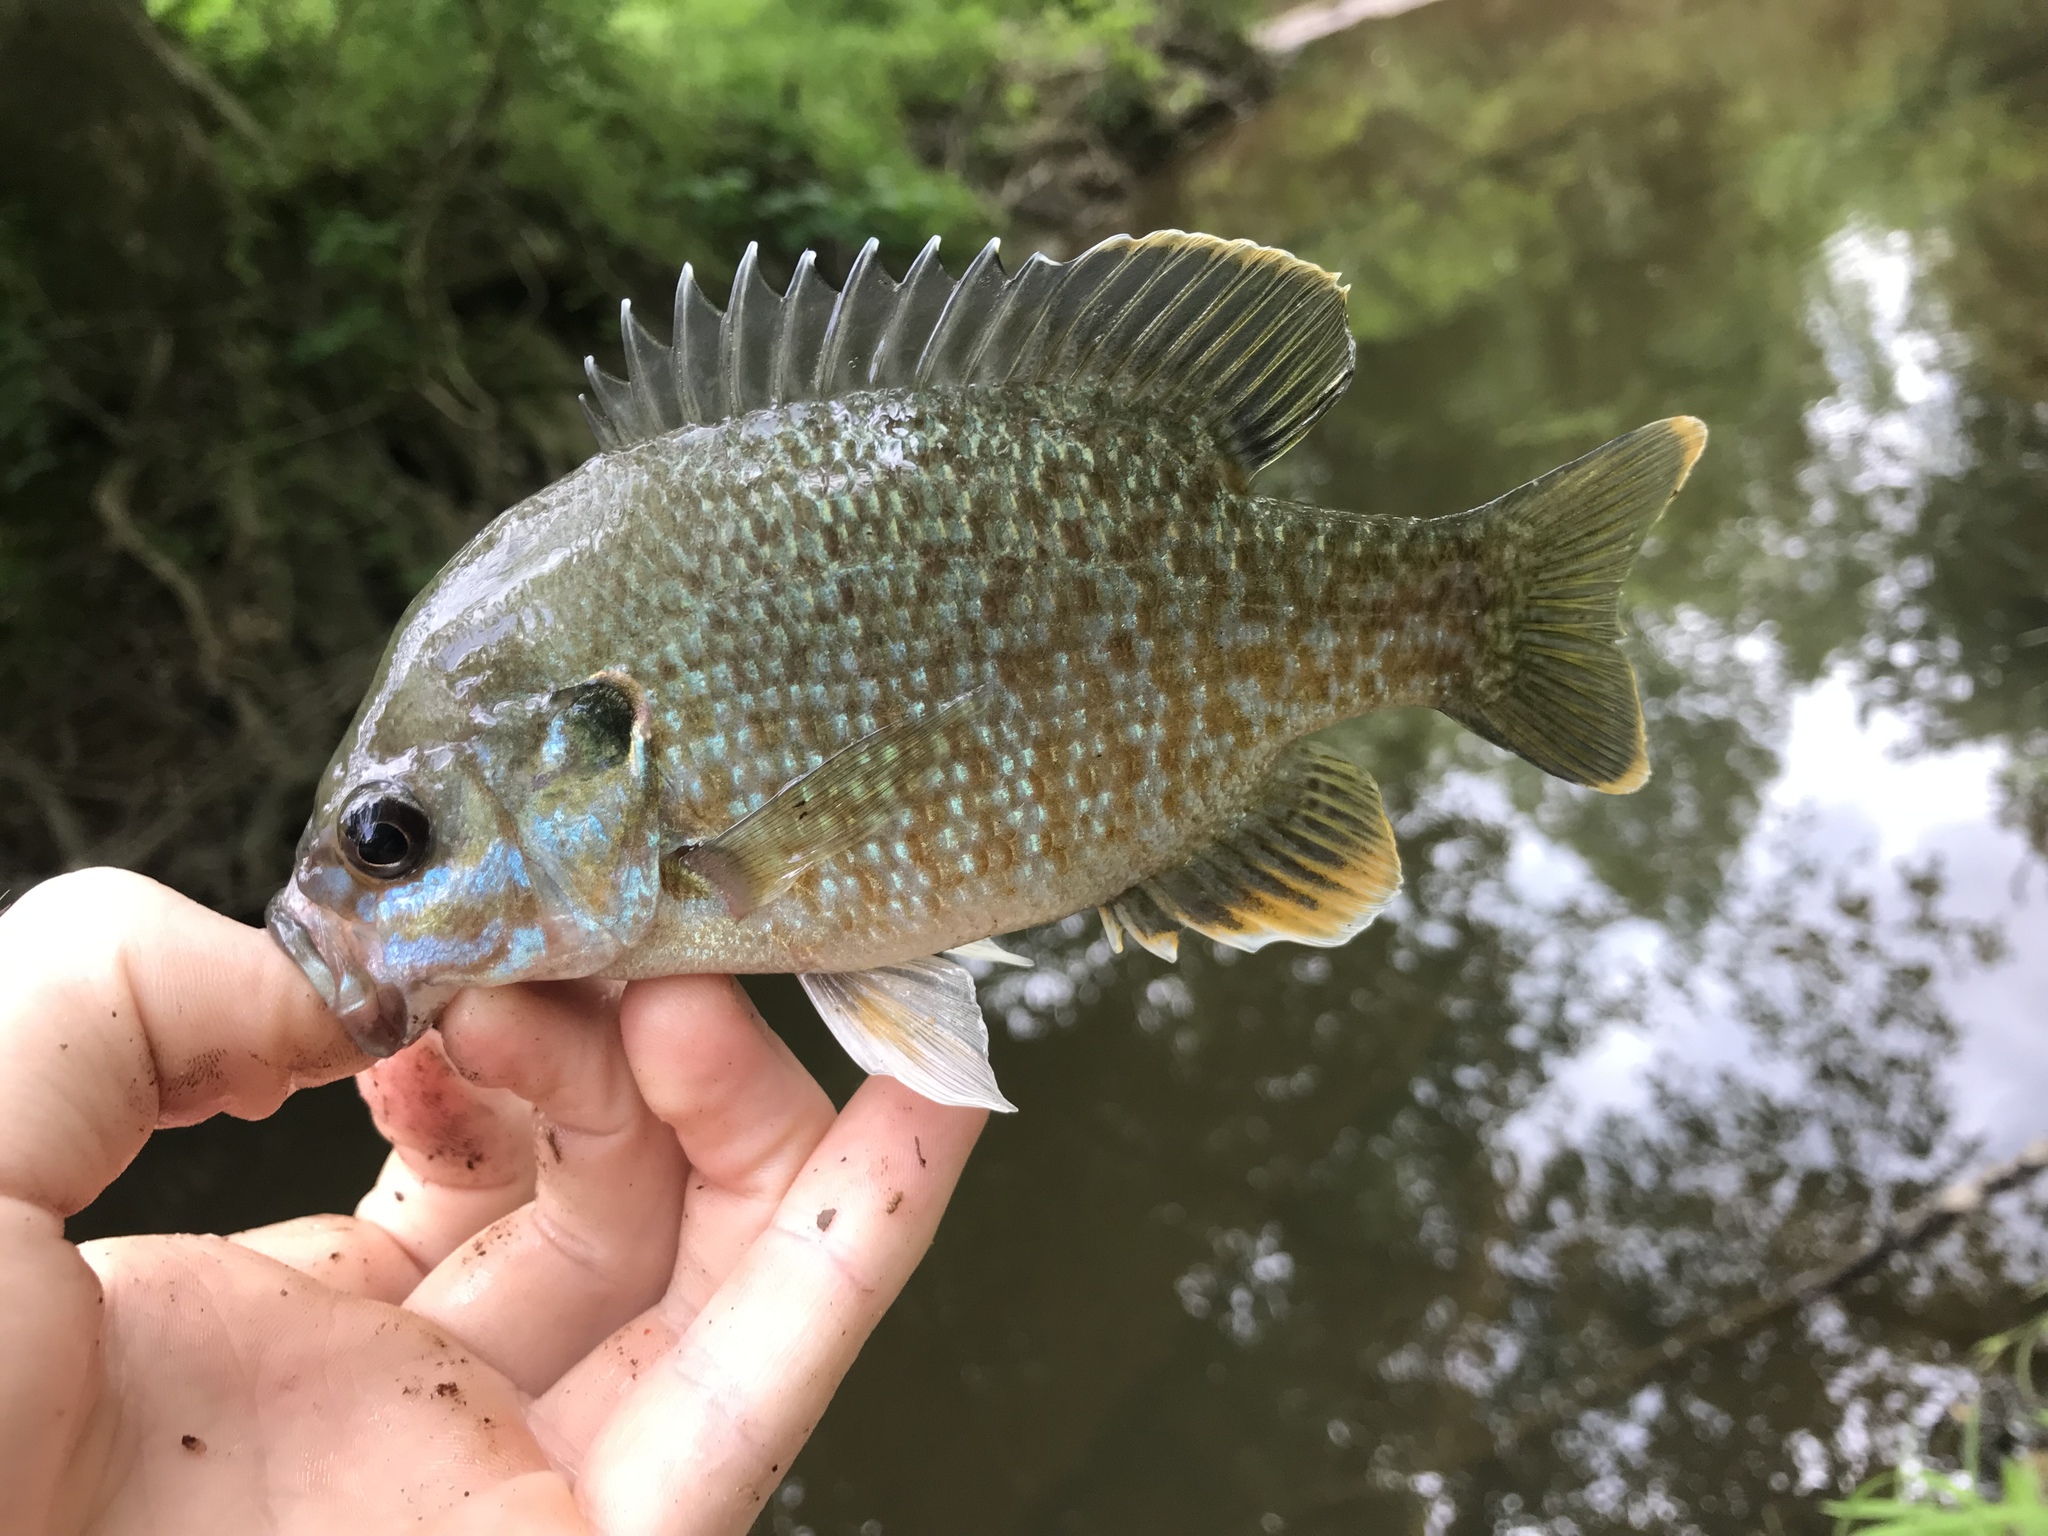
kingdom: Animalia
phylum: Chordata
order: Perciformes
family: Centrarchidae
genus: Lepomis
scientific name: Lepomis
